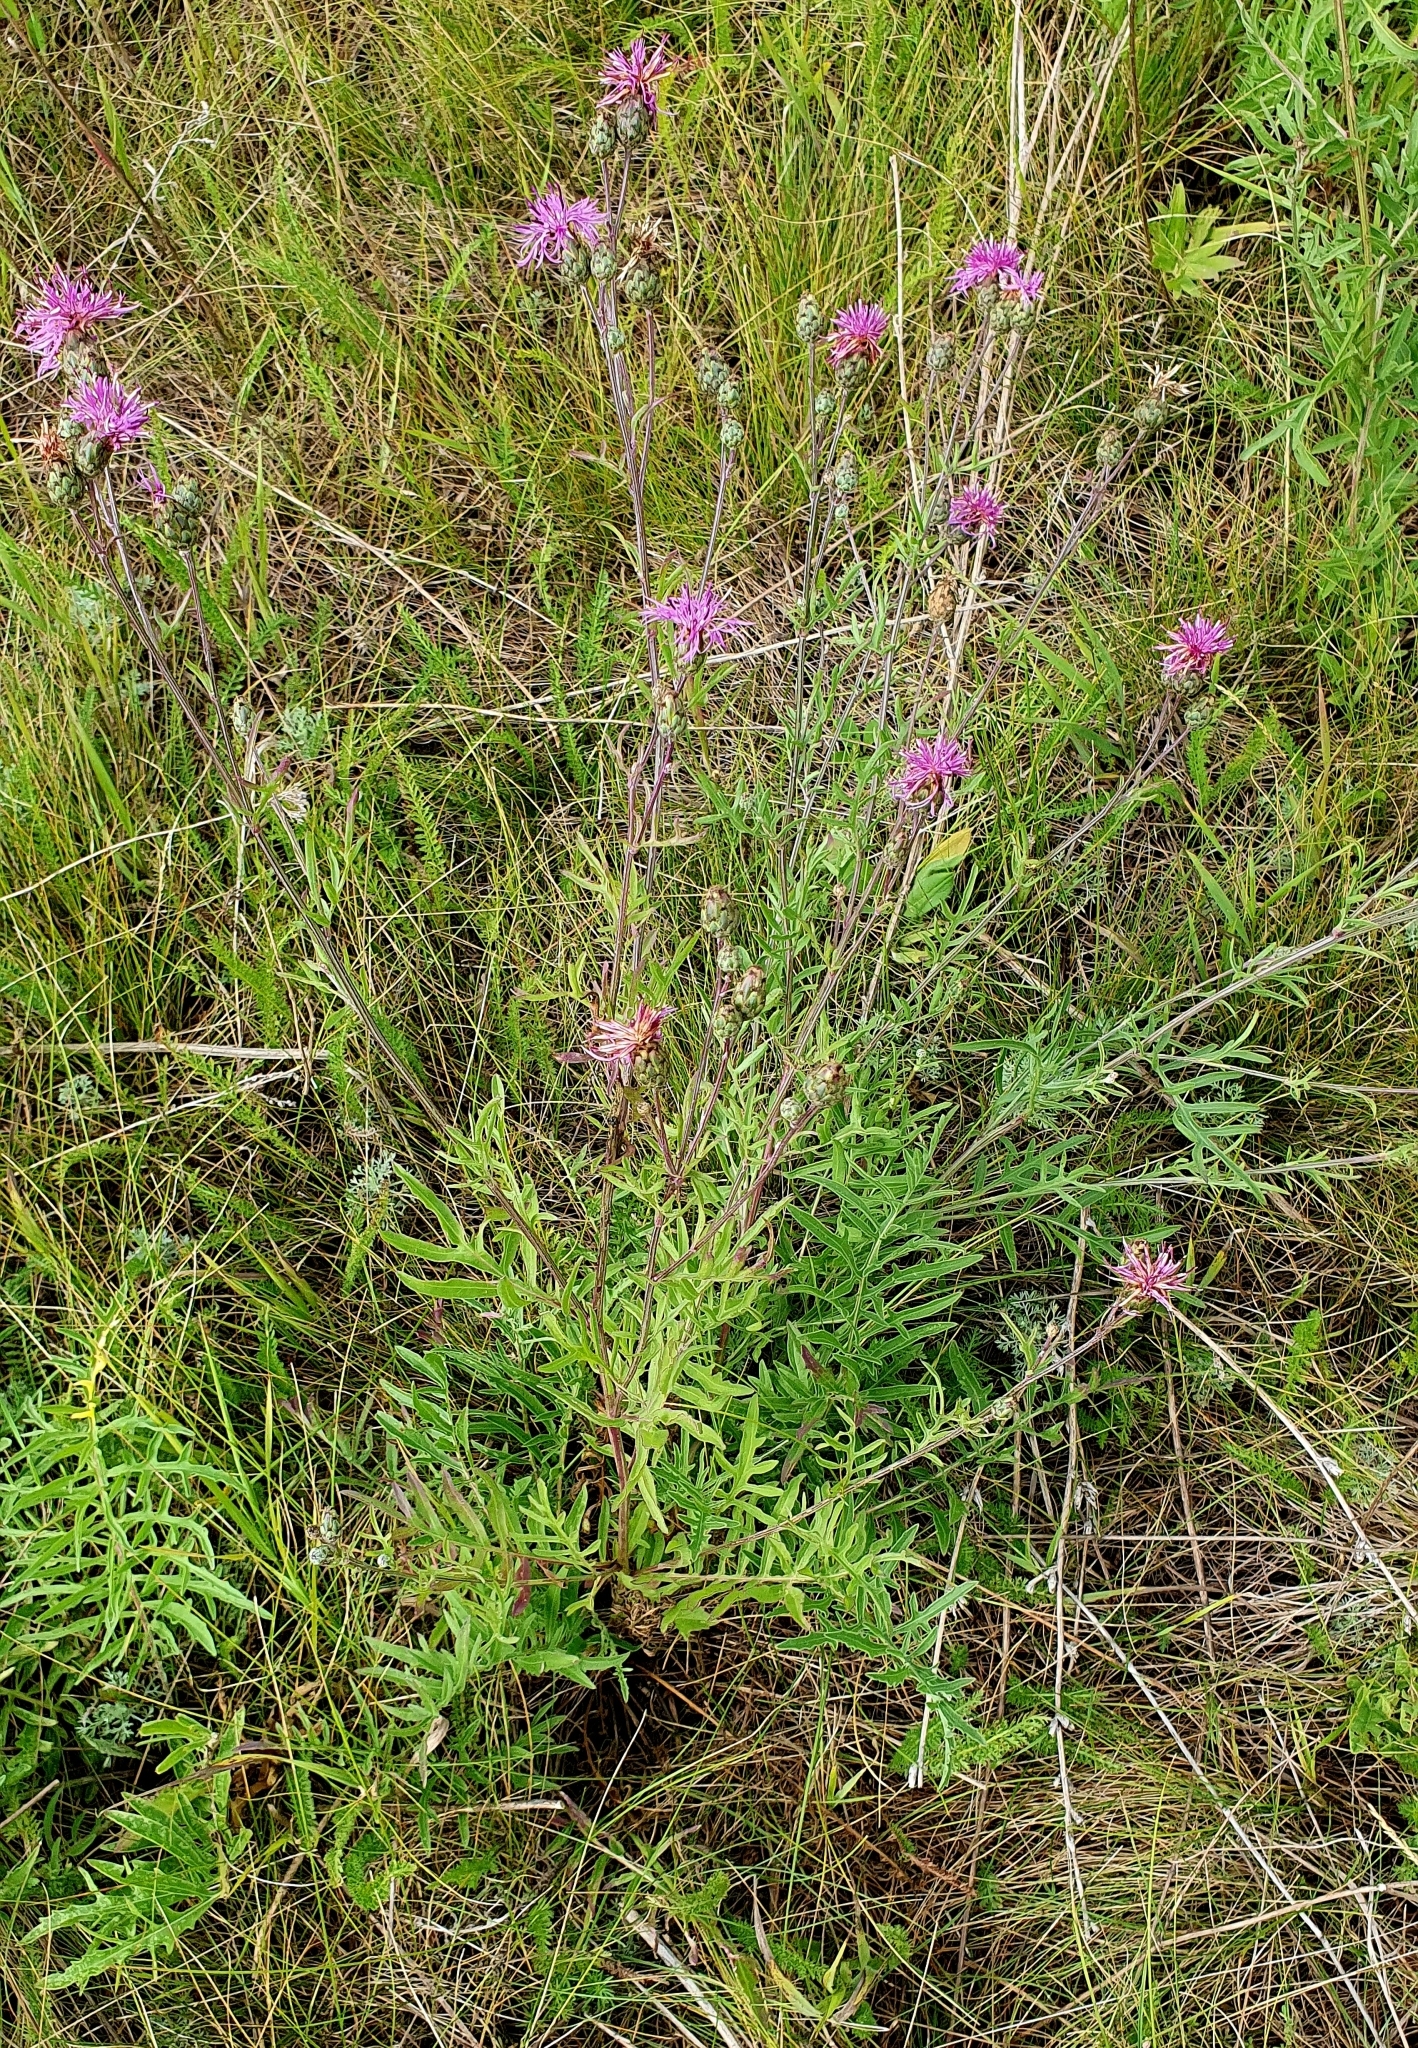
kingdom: Plantae
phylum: Tracheophyta
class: Magnoliopsida
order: Asterales
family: Asteraceae
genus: Centaurea
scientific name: Centaurea scabiosa
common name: Greater knapweed
